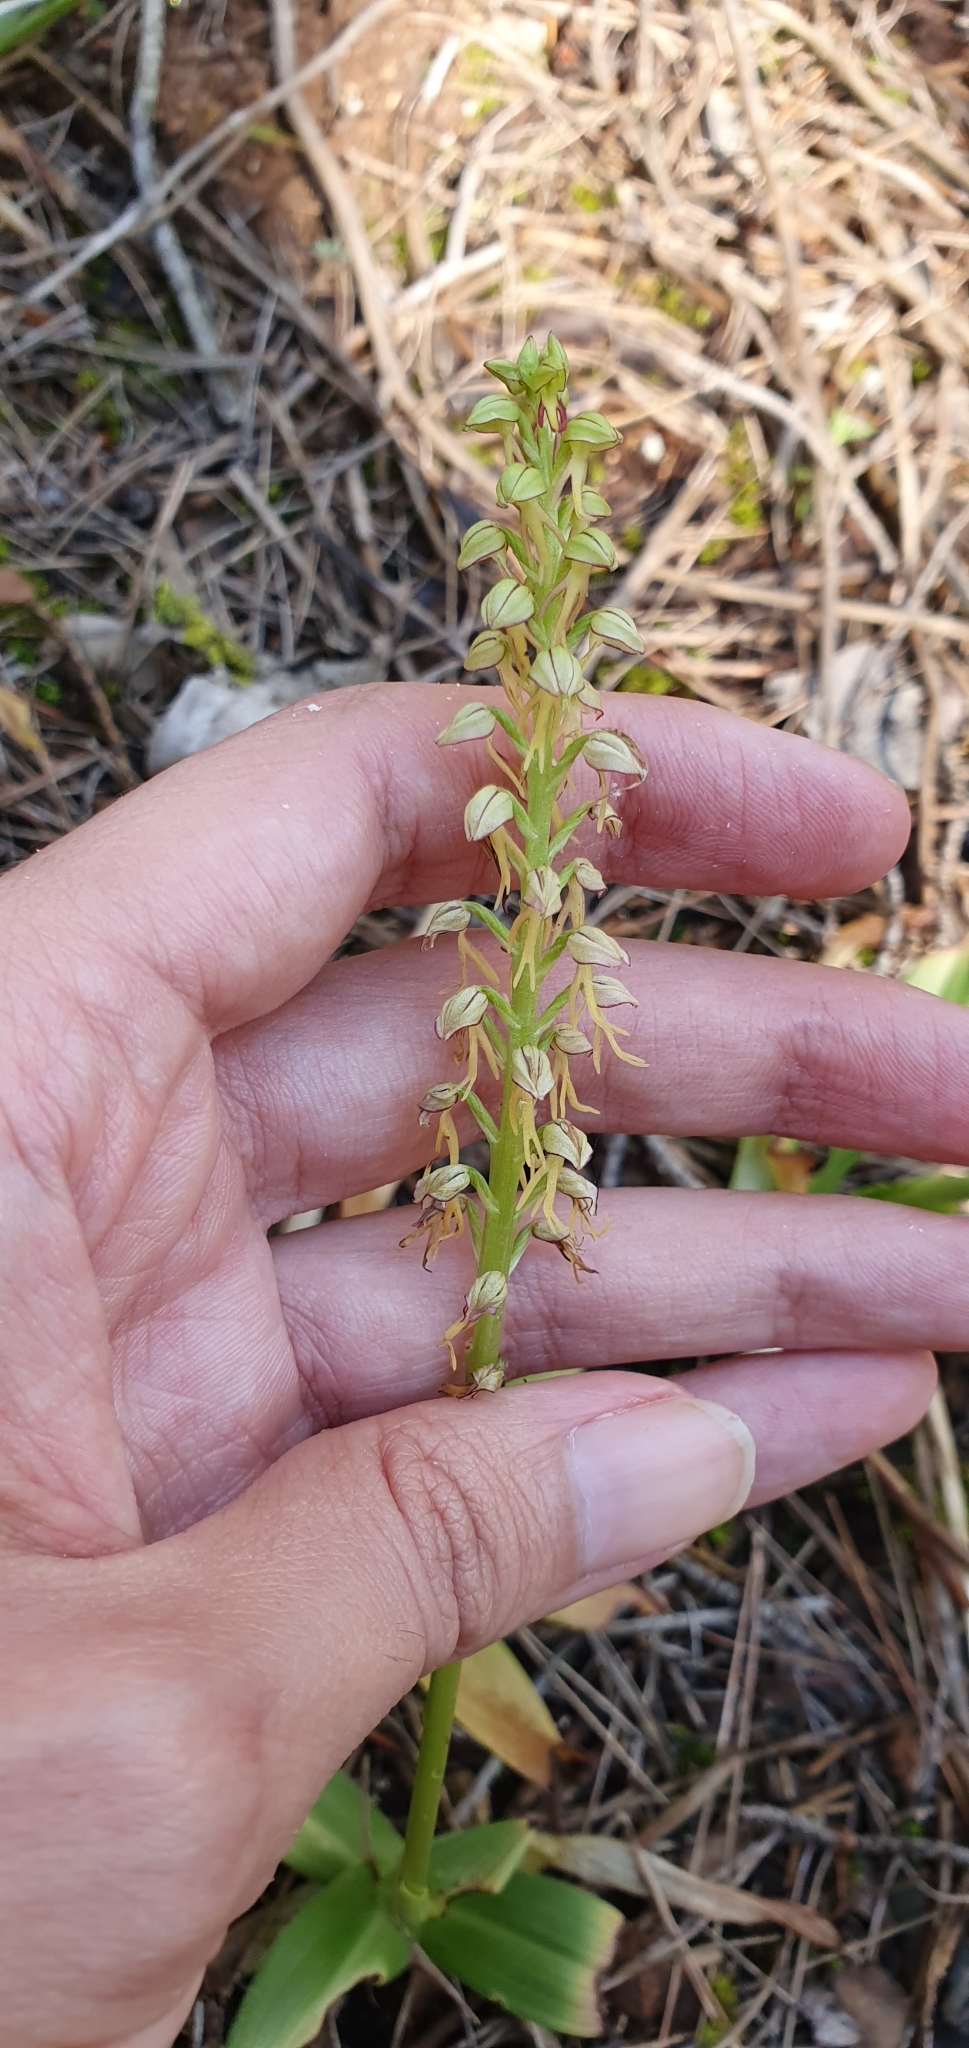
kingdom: Plantae
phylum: Tracheophyta
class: Liliopsida
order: Asparagales
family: Orchidaceae
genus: Orchis
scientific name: Orchis anthropophora
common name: Man orchid
